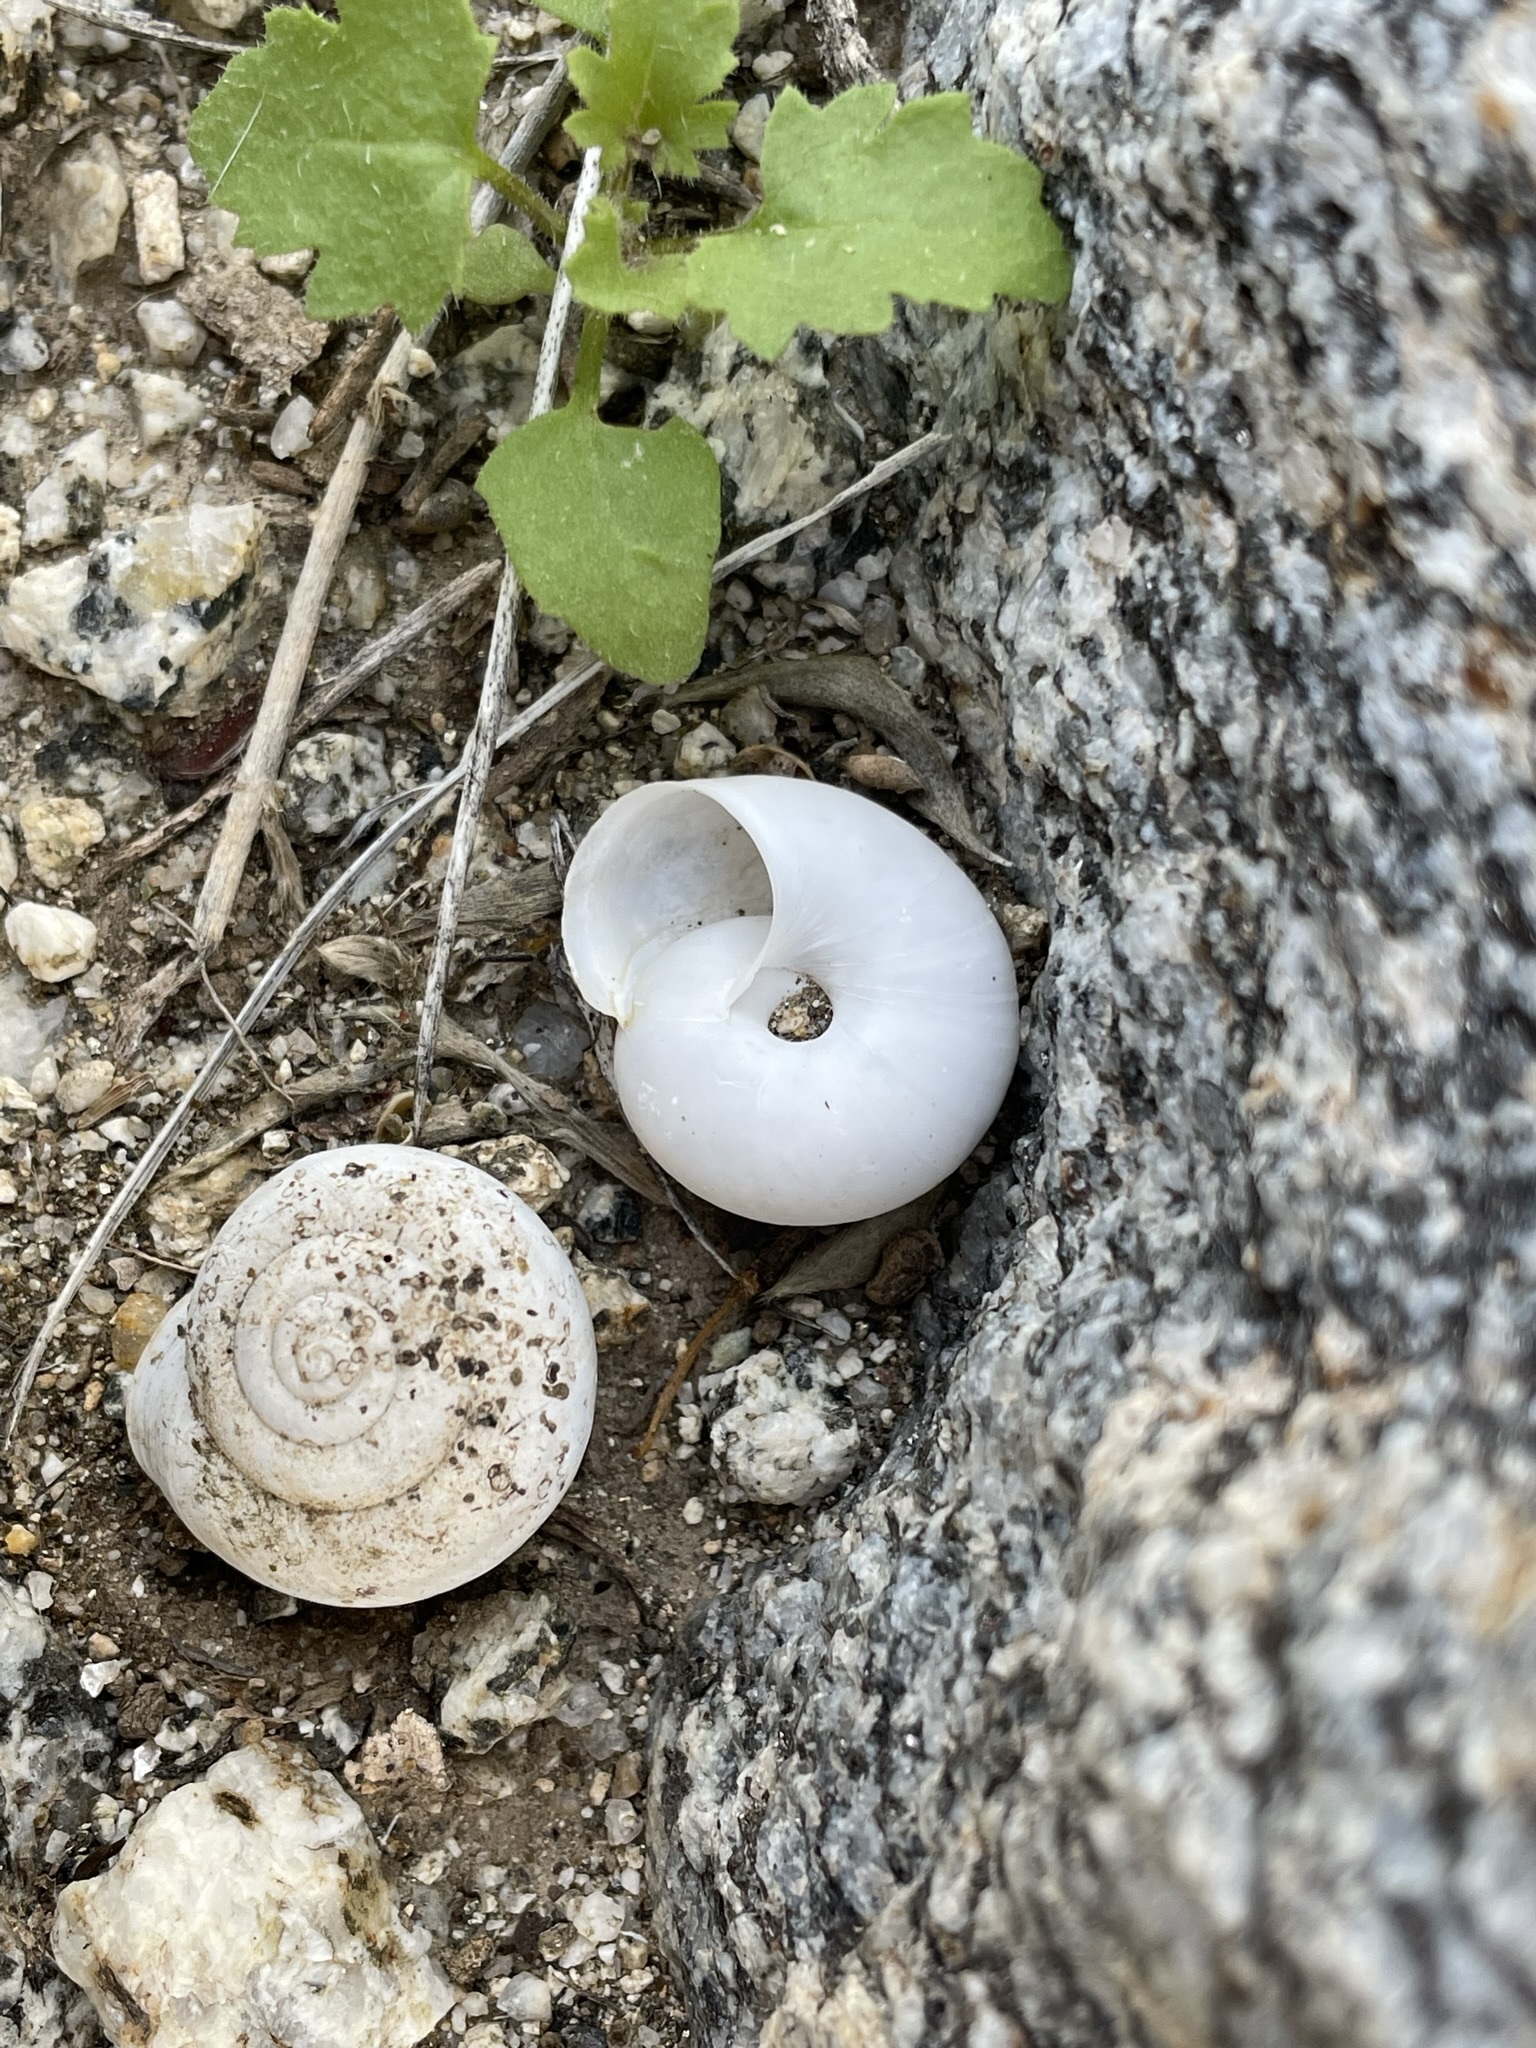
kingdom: Animalia
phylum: Mollusca
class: Gastropoda
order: Stylommatophora
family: Xanthonychidae
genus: Sonorelix
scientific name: Sonorelix borregoensis
